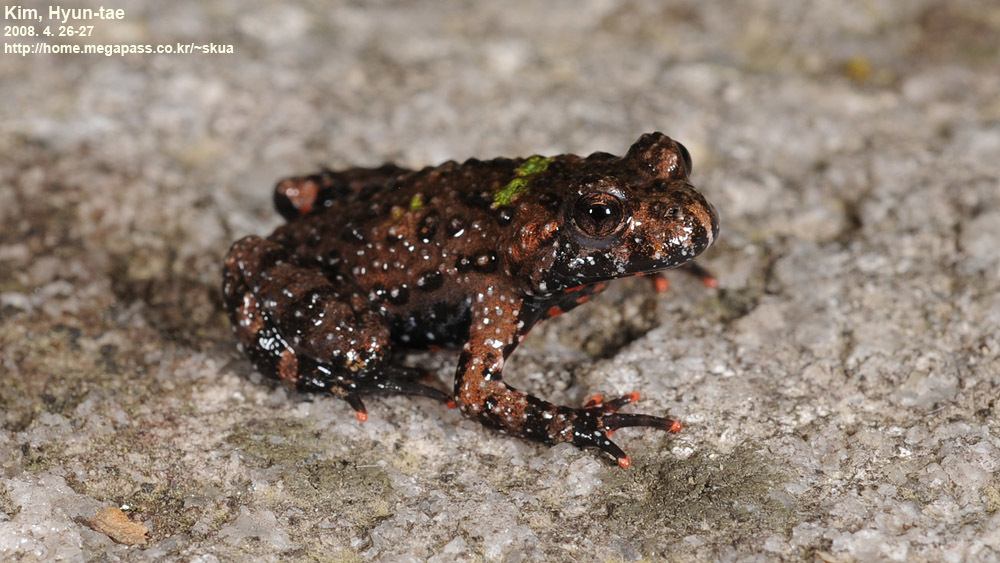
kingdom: Animalia
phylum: Chordata
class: Amphibia
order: Anura
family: Bombinatoridae
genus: Bombina
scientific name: Bombina orientalis
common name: Oriental firebelly toad
